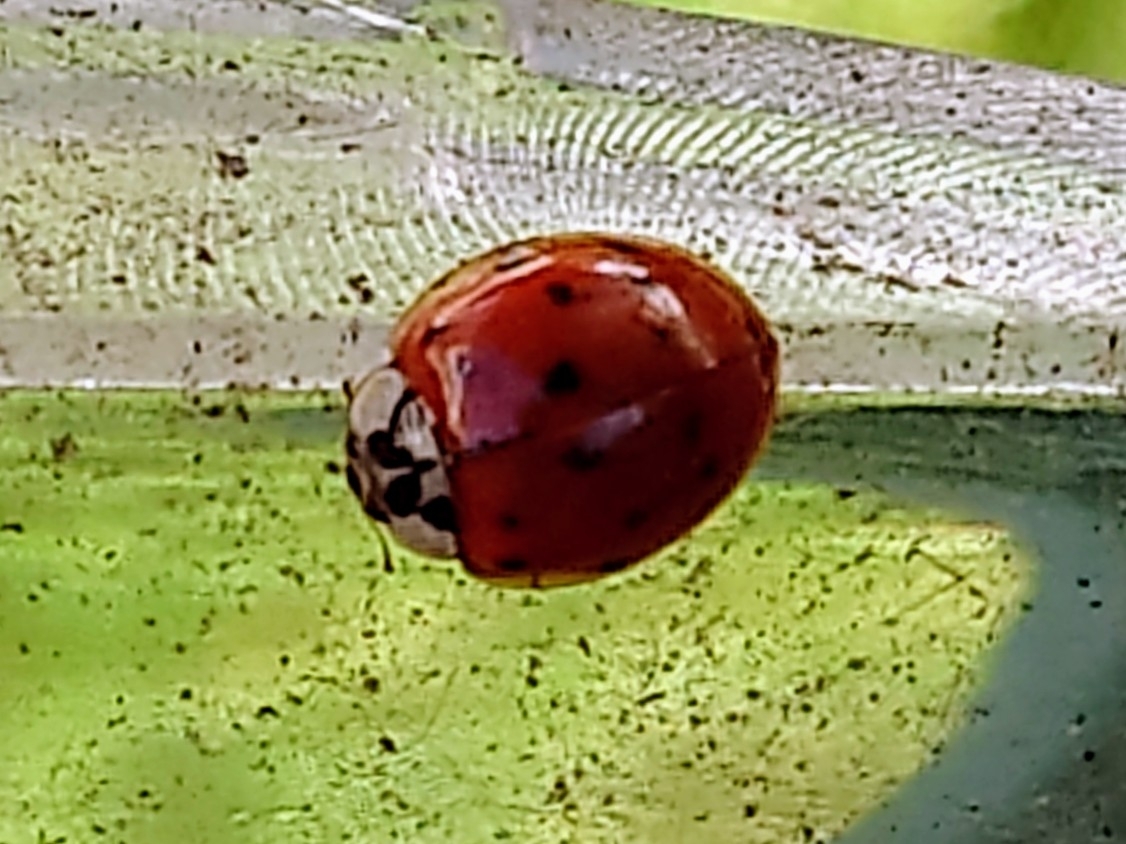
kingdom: Animalia
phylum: Arthropoda
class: Insecta
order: Coleoptera
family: Coccinellidae
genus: Harmonia
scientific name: Harmonia axyridis
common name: Harlequin ladybird
